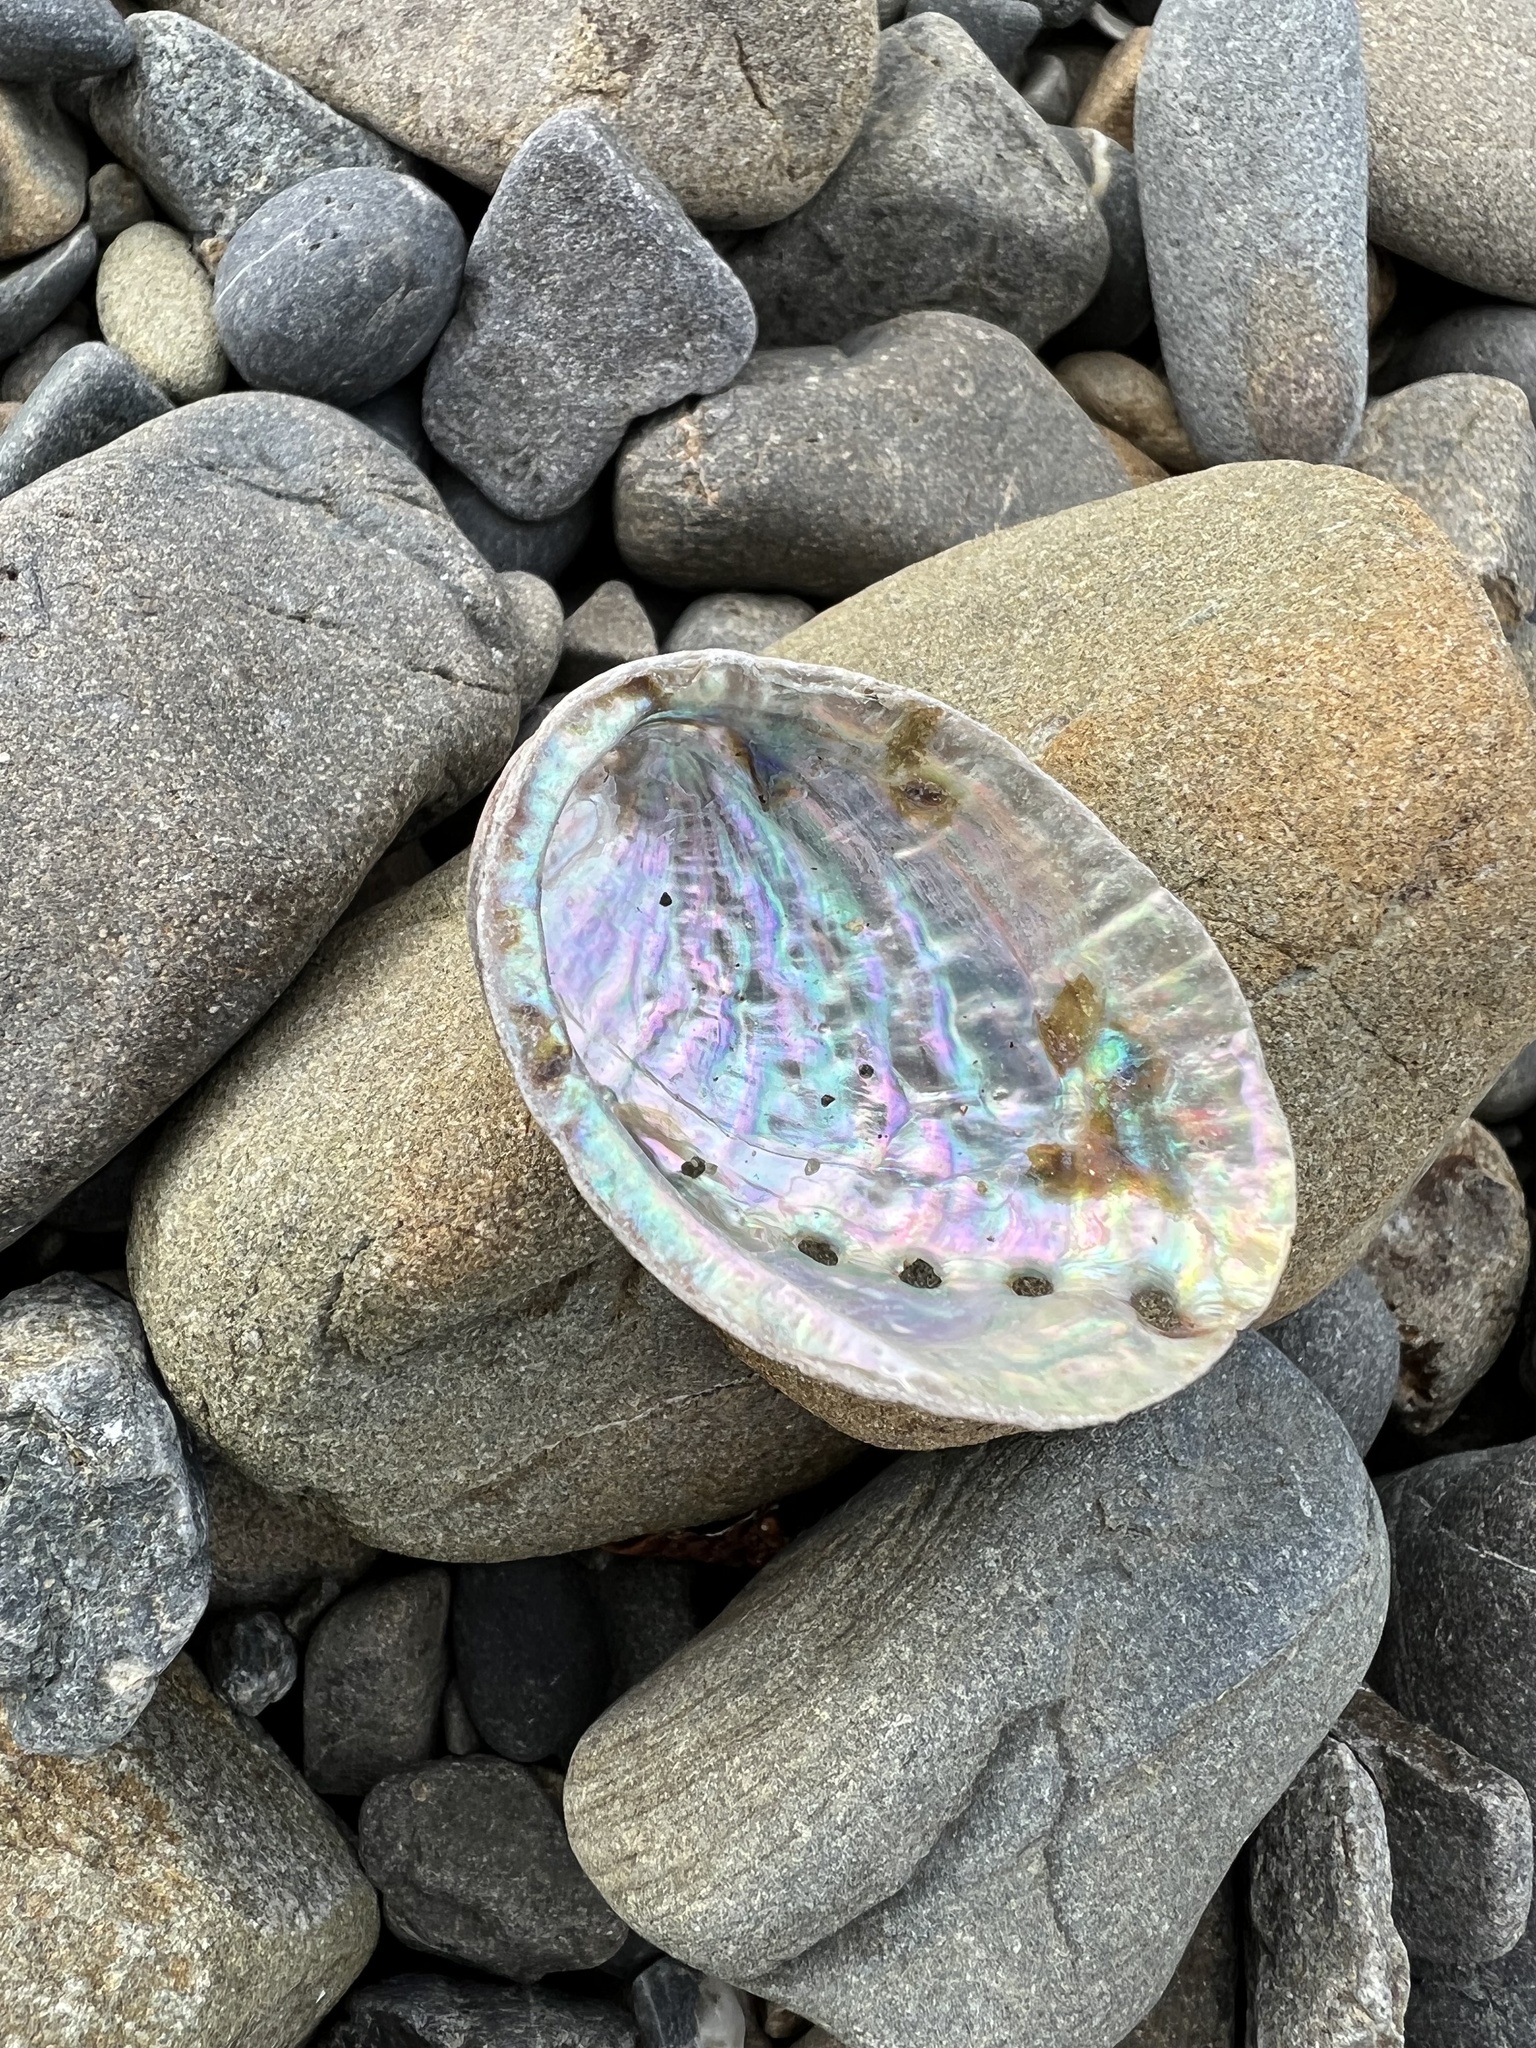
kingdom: Animalia
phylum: Mollusca
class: Gastropoda
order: Lepetellida
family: Haliotidae
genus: Haliotis
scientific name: Haliotis iris
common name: Abalone
